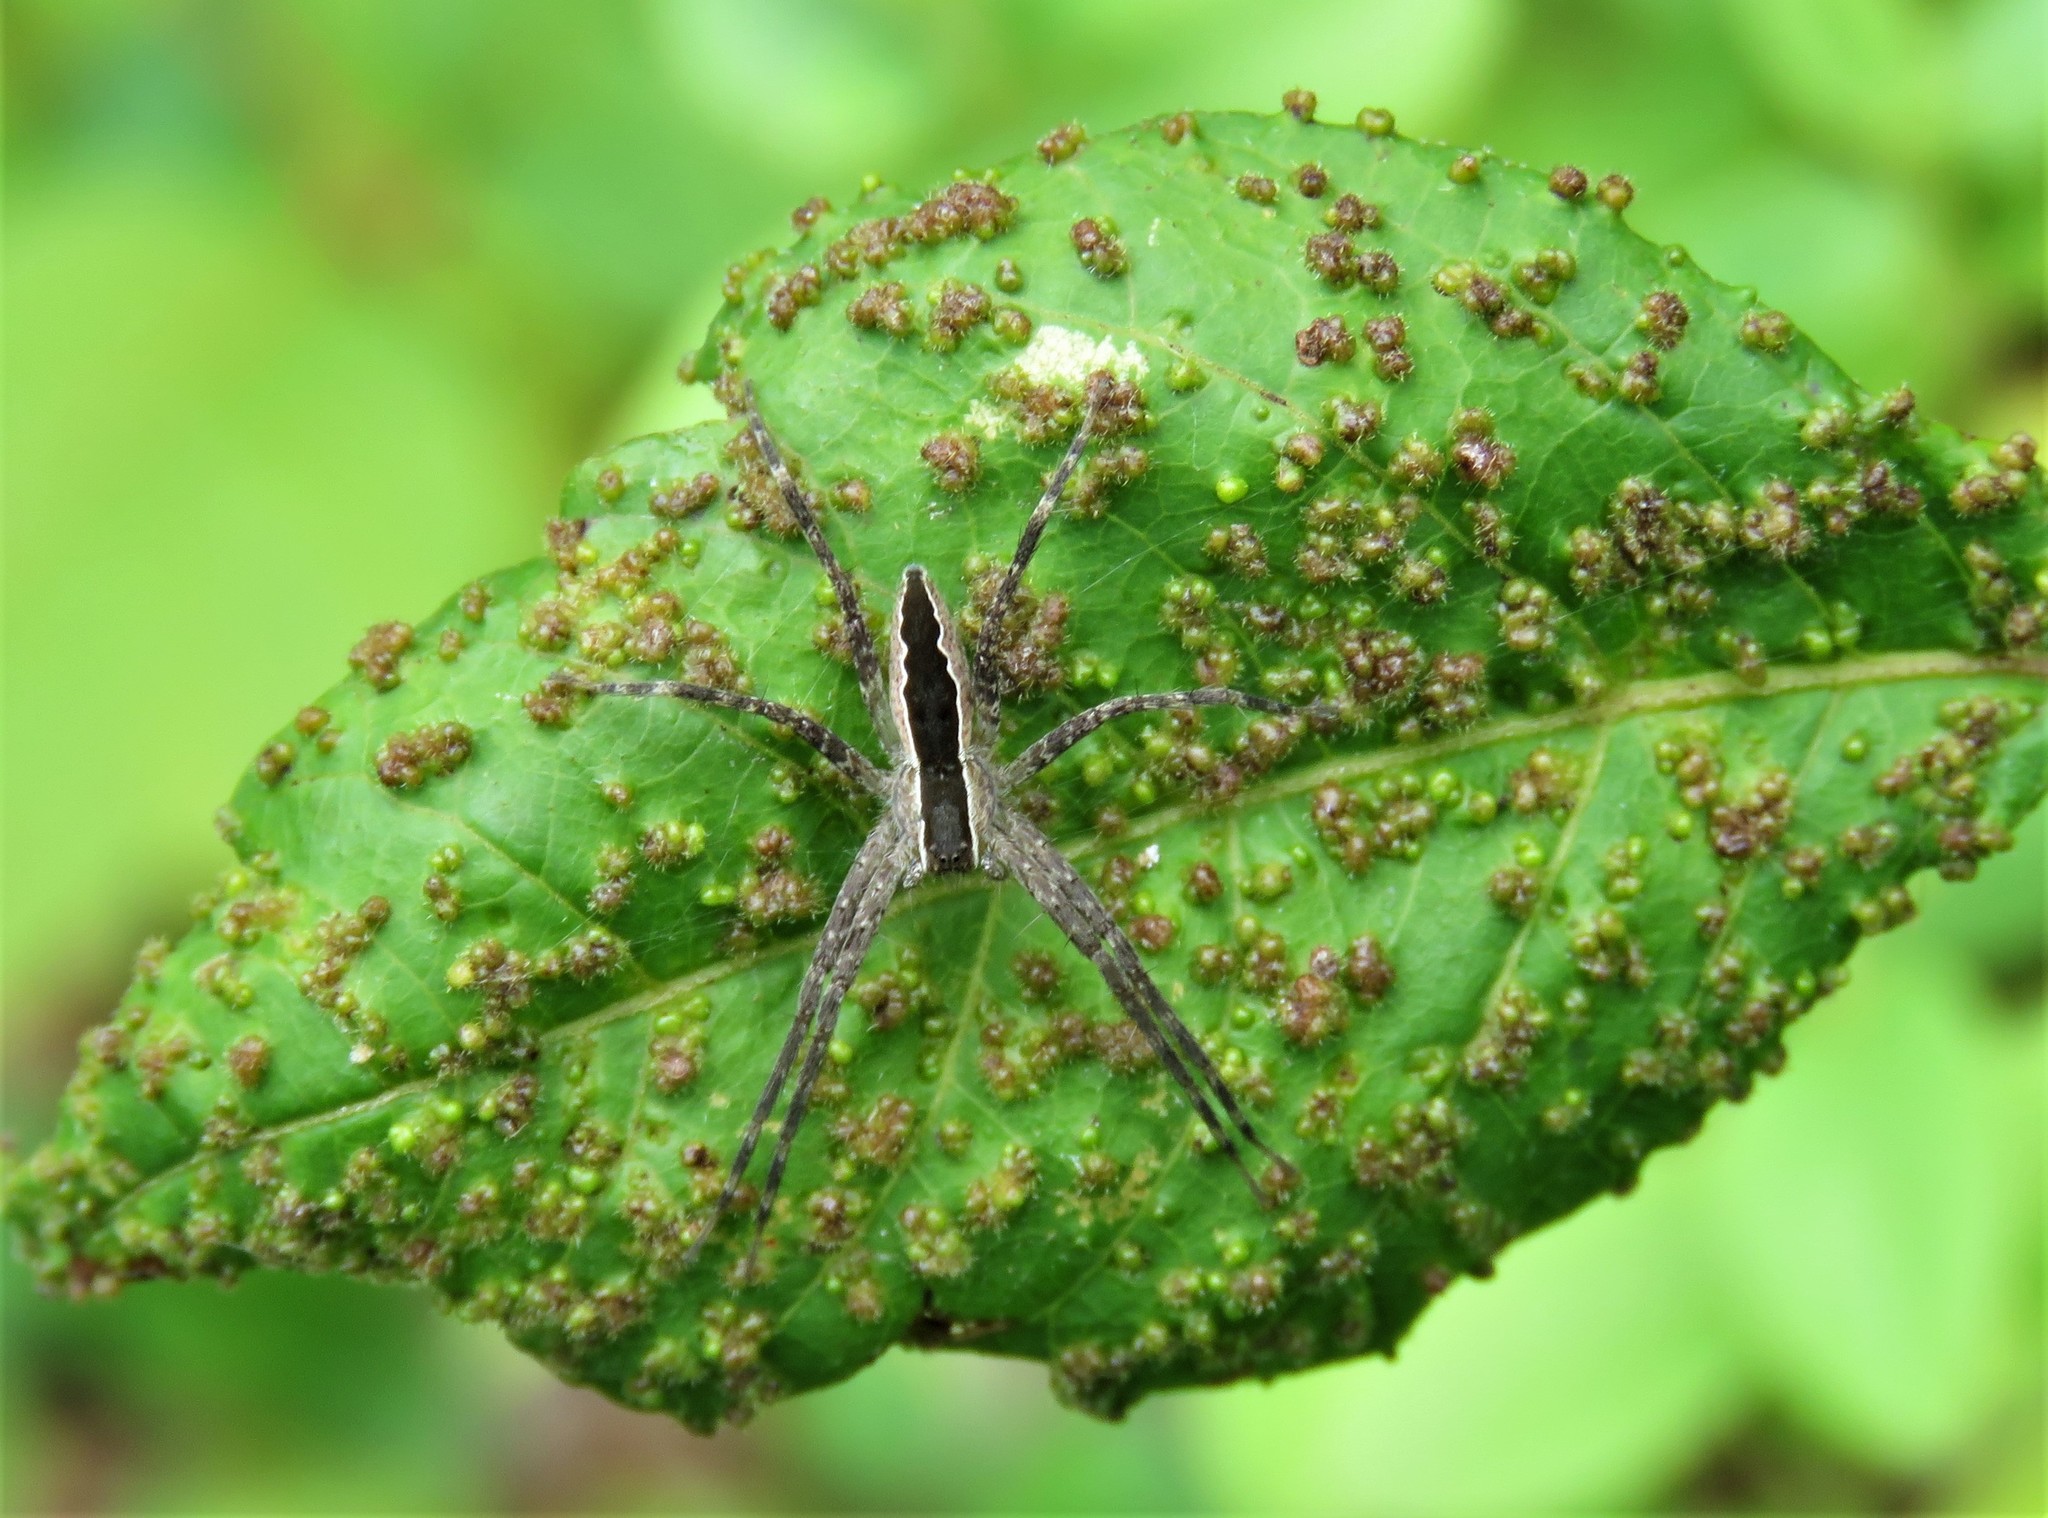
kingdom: Animalia
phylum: Arthropoda
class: Arachnida
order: Araneae
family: Pisauridae
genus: Pisaurina
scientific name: Pisaurina mira
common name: American nursery web spider
